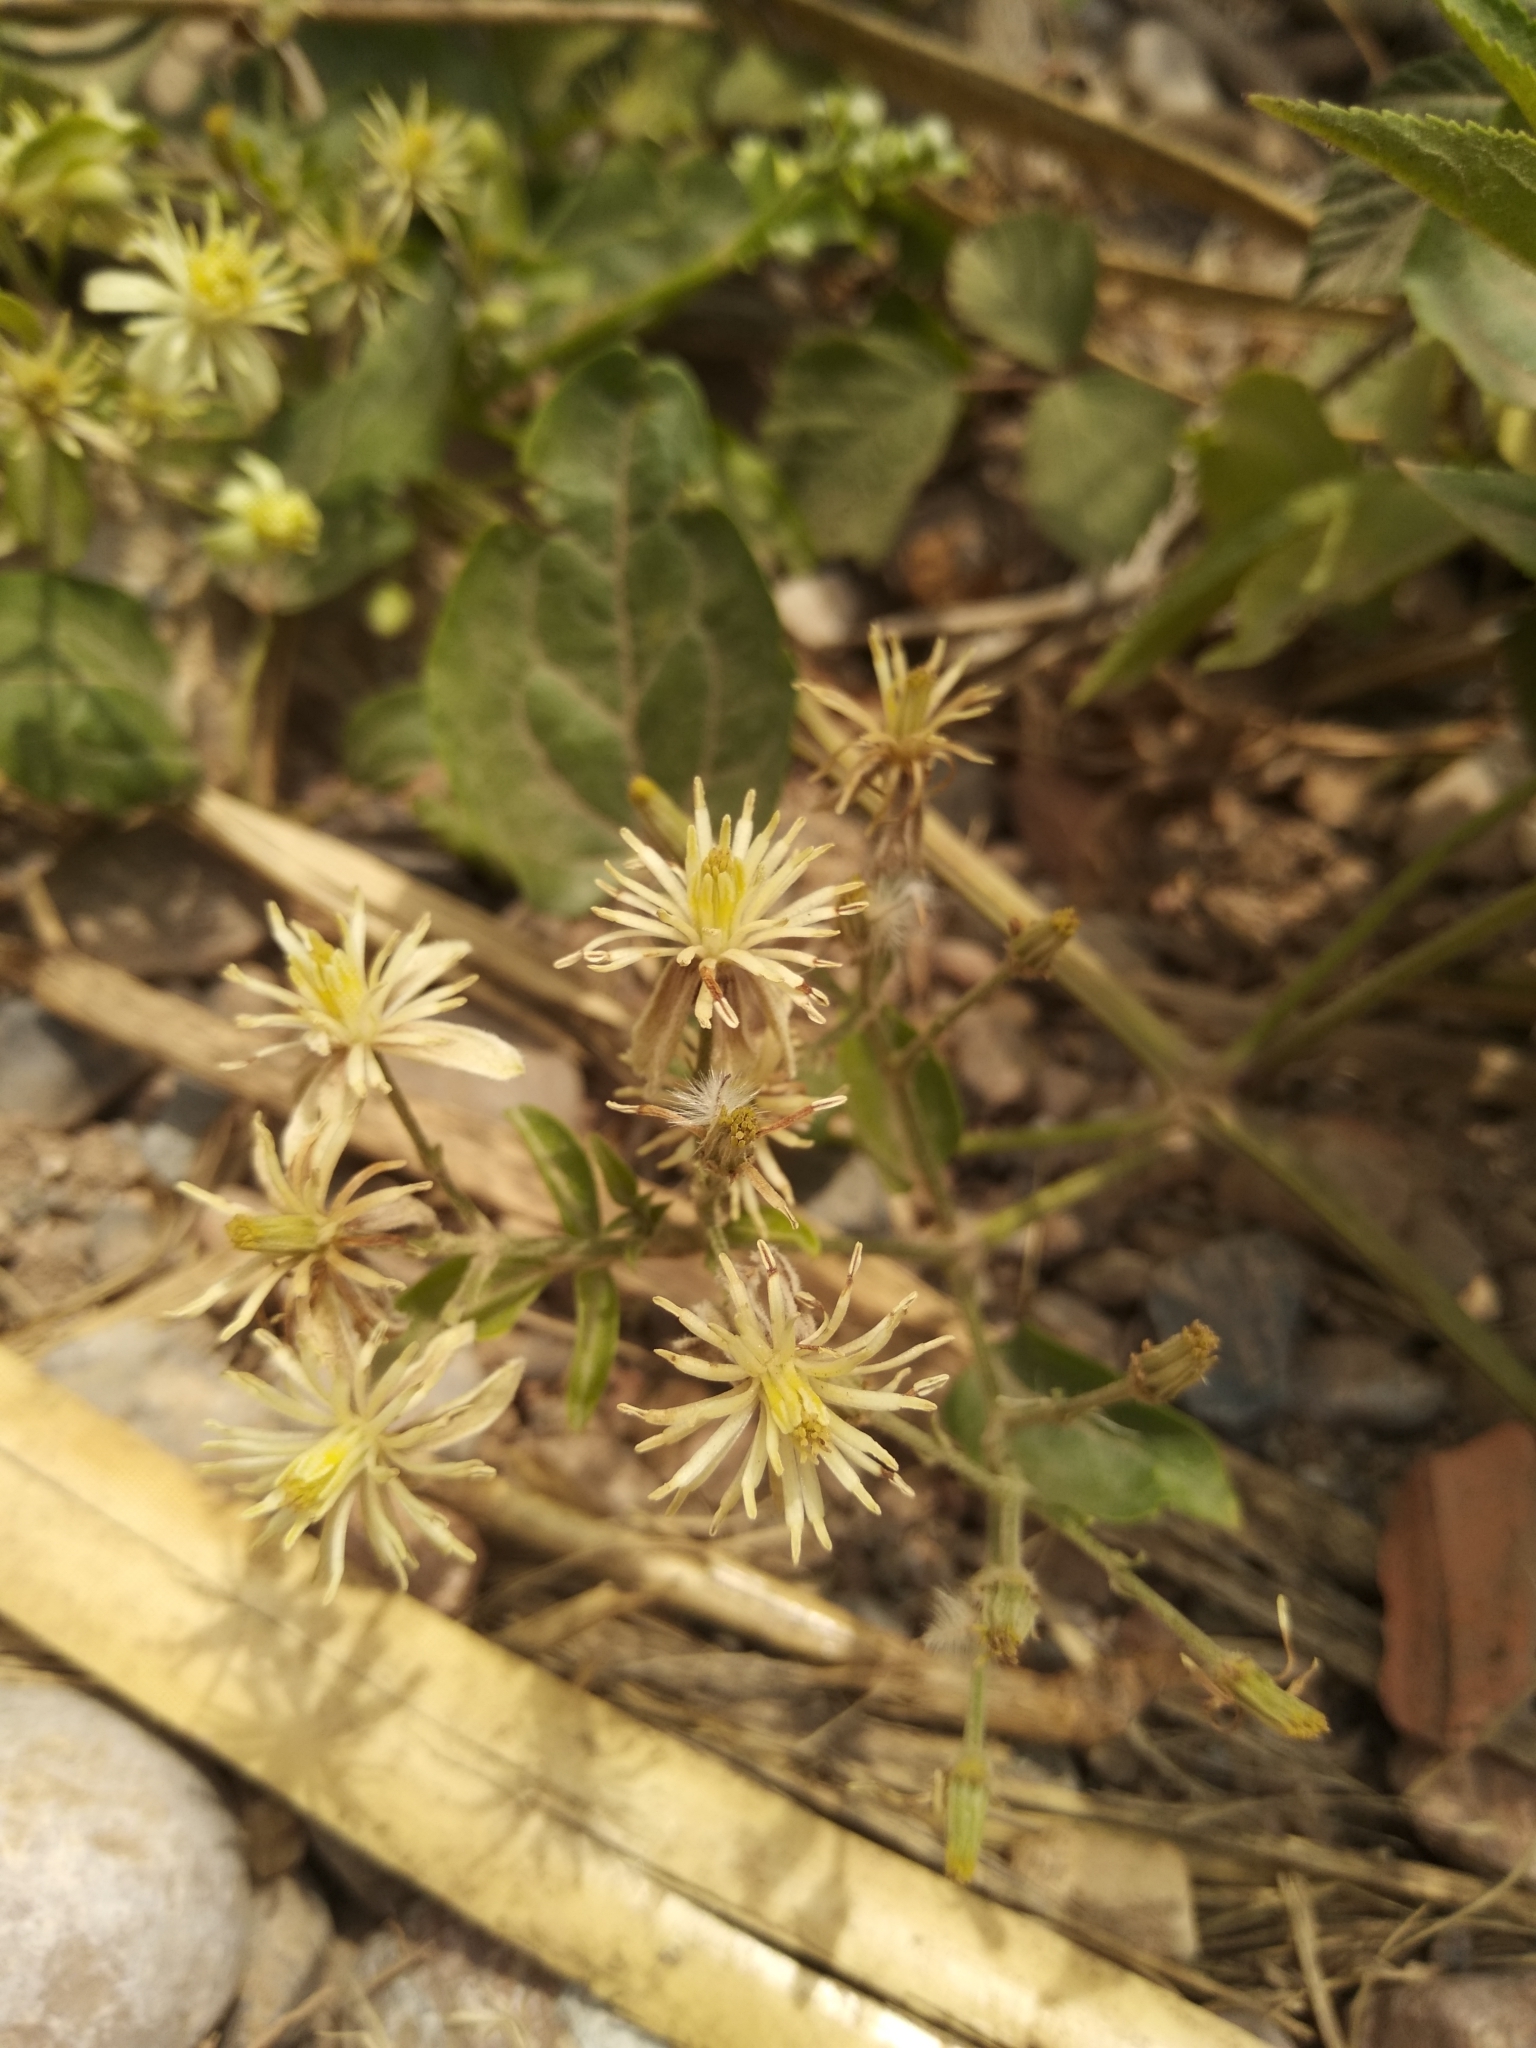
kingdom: Plantae
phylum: Tracheophyta
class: Magnoliopsida
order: Ranunculales
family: Ranunculaceae
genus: Clematis
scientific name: Clematis vitalba
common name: Evergreen clematis
